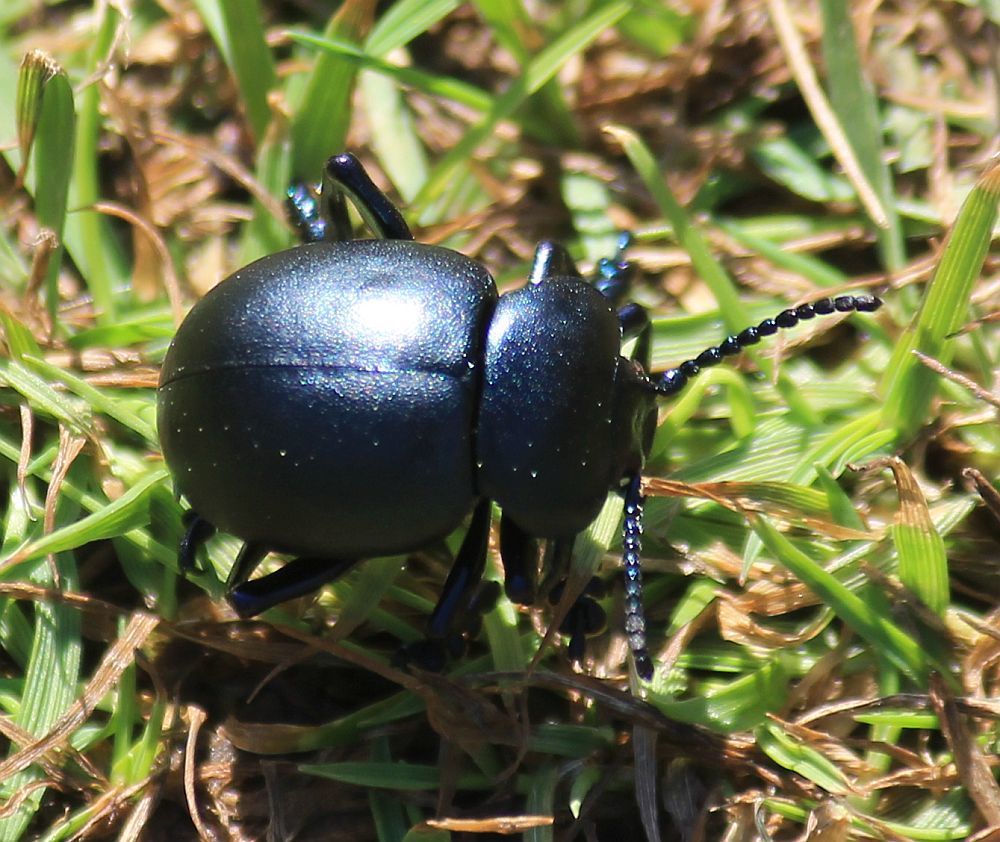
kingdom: Animalia
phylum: Arthropoda
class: Insecta
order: Coleoptera
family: Chrysomelidae
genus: Timarcha
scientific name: Timarcha tenebricosa
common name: Bloody-nosed beetle
